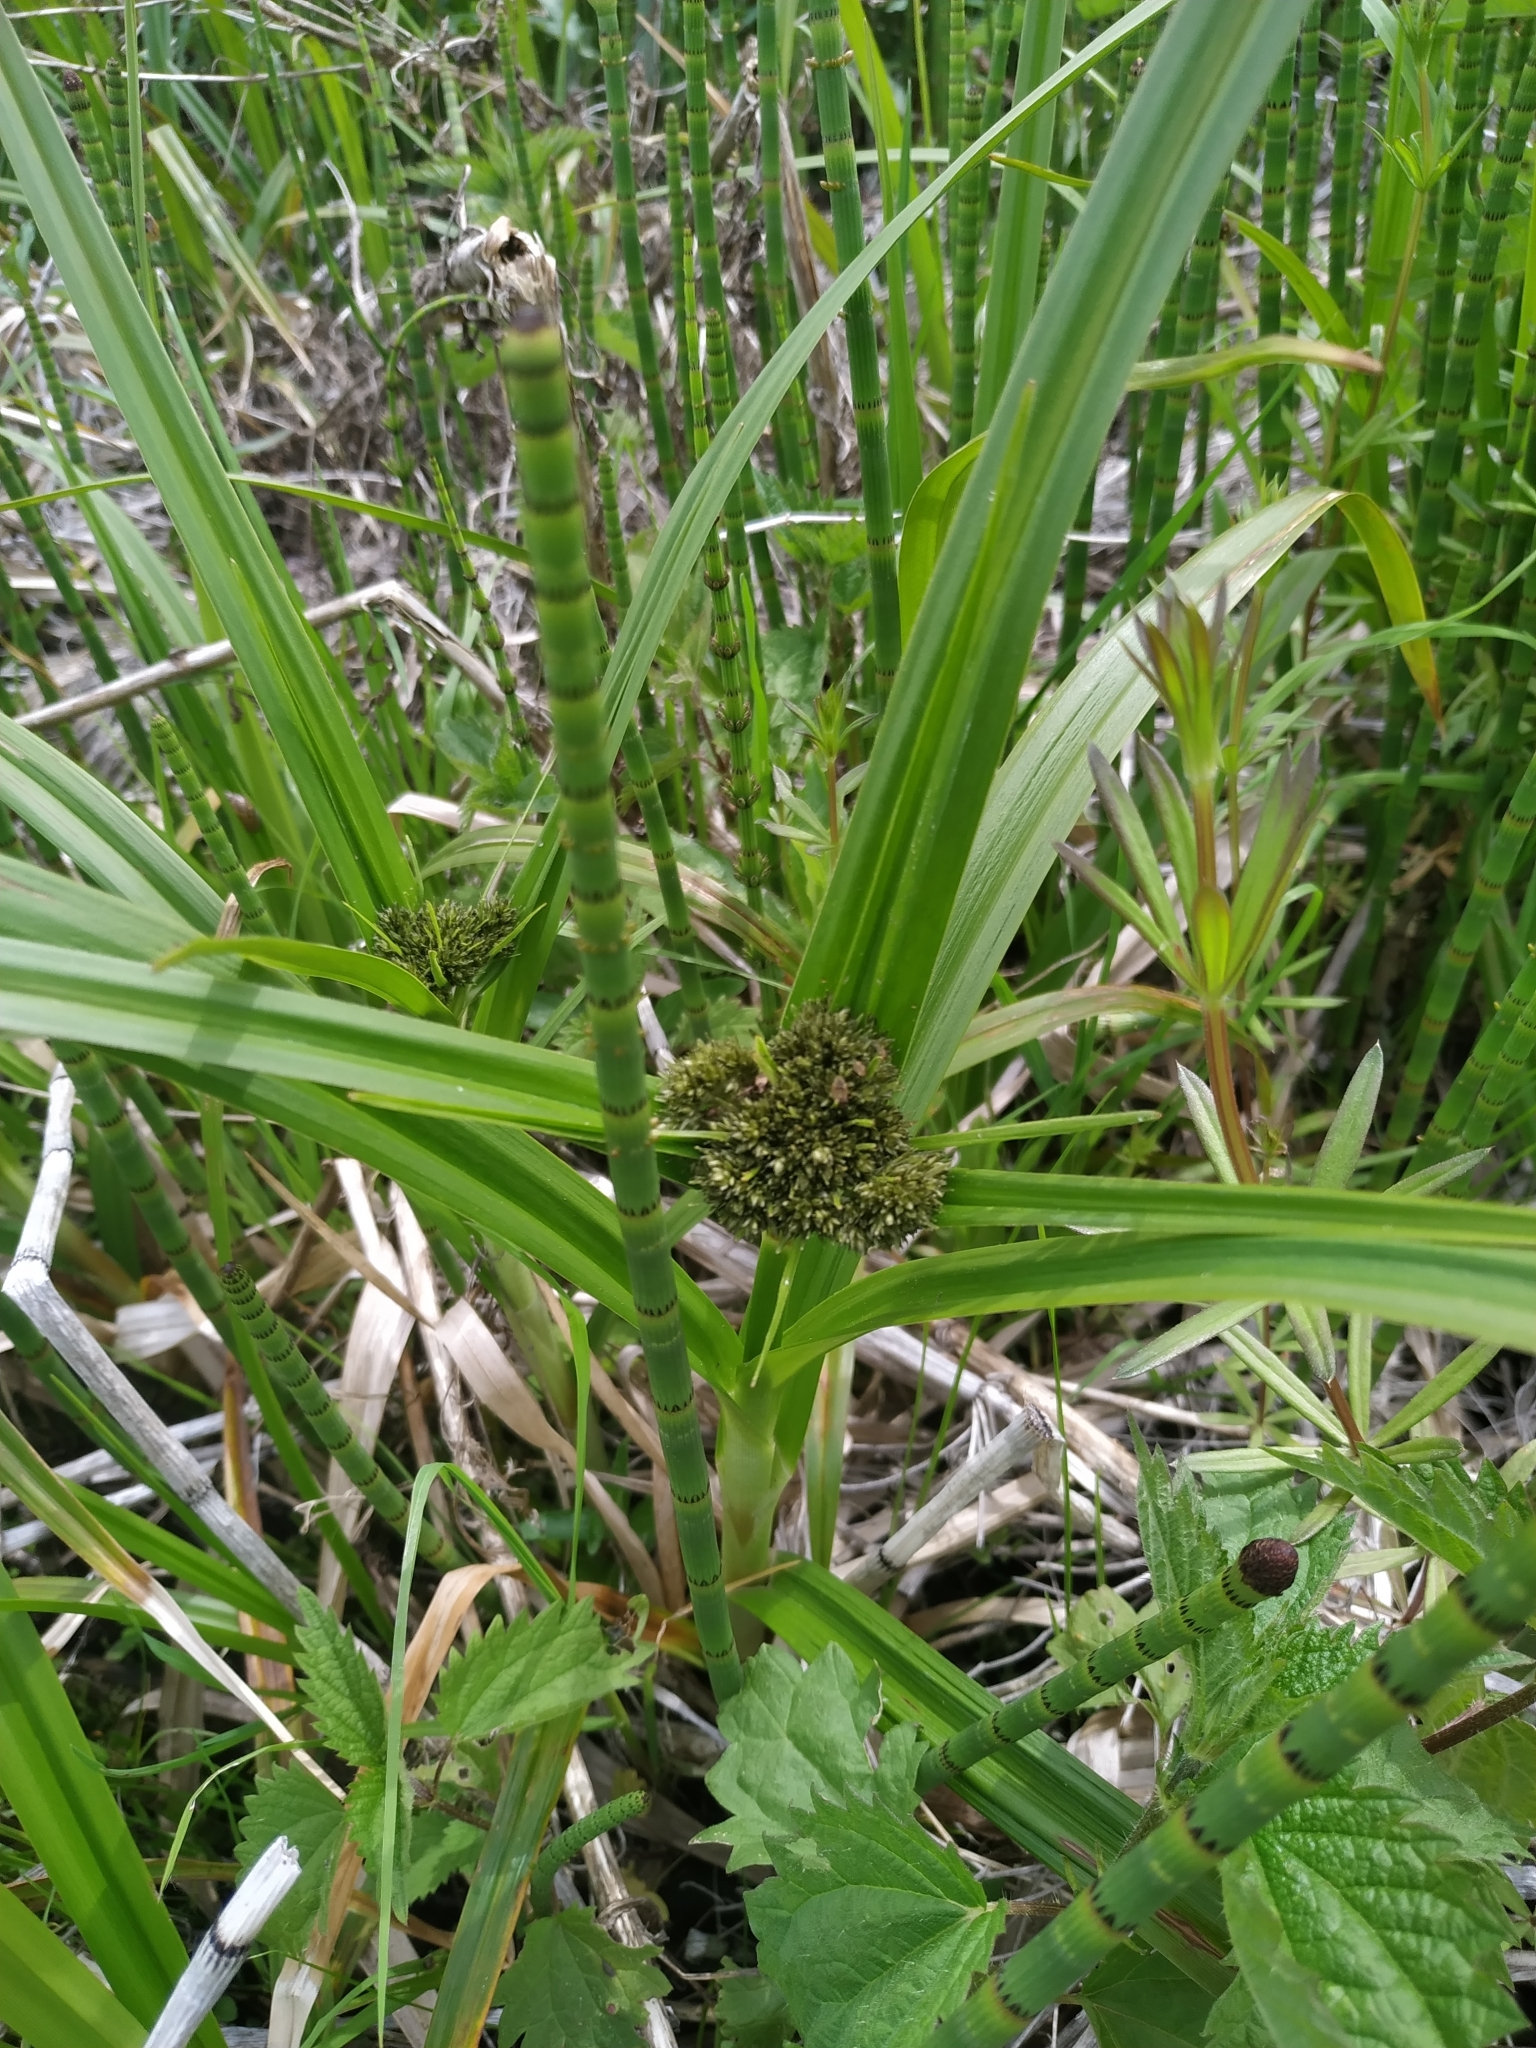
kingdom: Plantae
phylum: Tracheophyta
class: Liliopsida
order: Poales
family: Cyperaceae
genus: Scirpus
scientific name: Scirpus sylvaticus
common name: Wood club-rush
